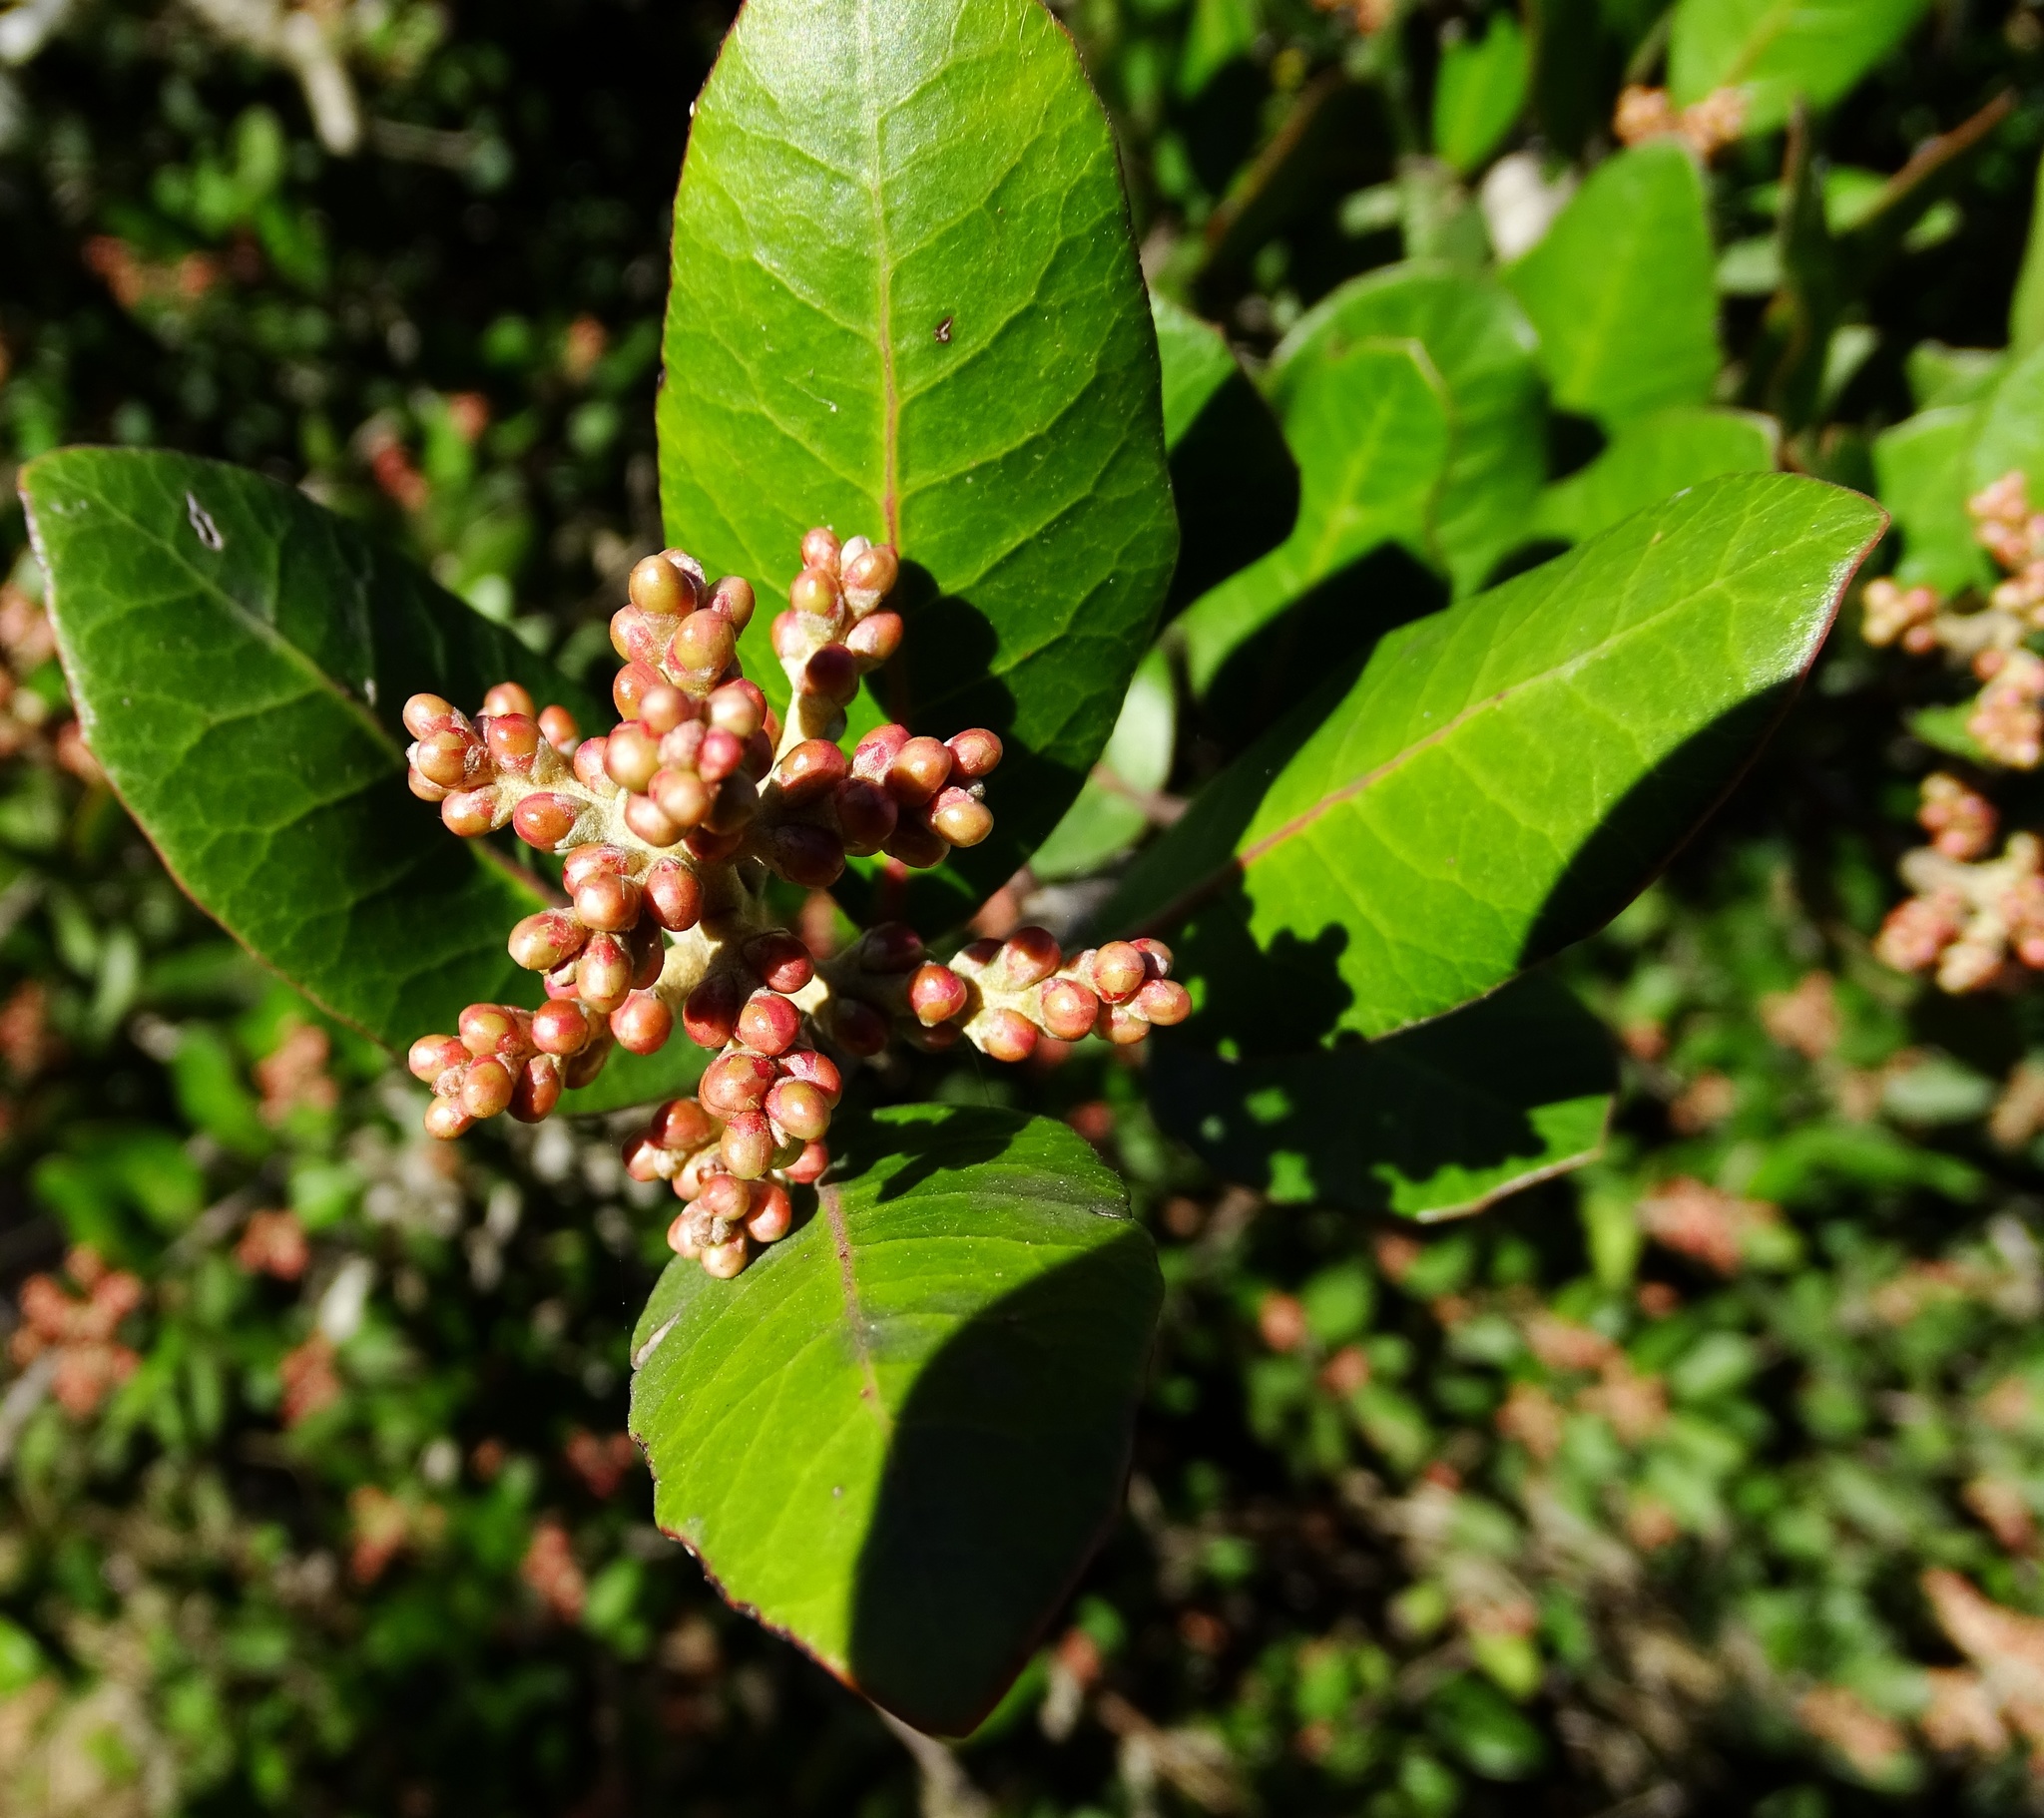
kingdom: Plantae
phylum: Tracheophyta
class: Magnoliopsida
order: Sapindales
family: Anacardiaceae
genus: Rhus
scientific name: Rhus integrifolia
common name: Lemonade sumac
